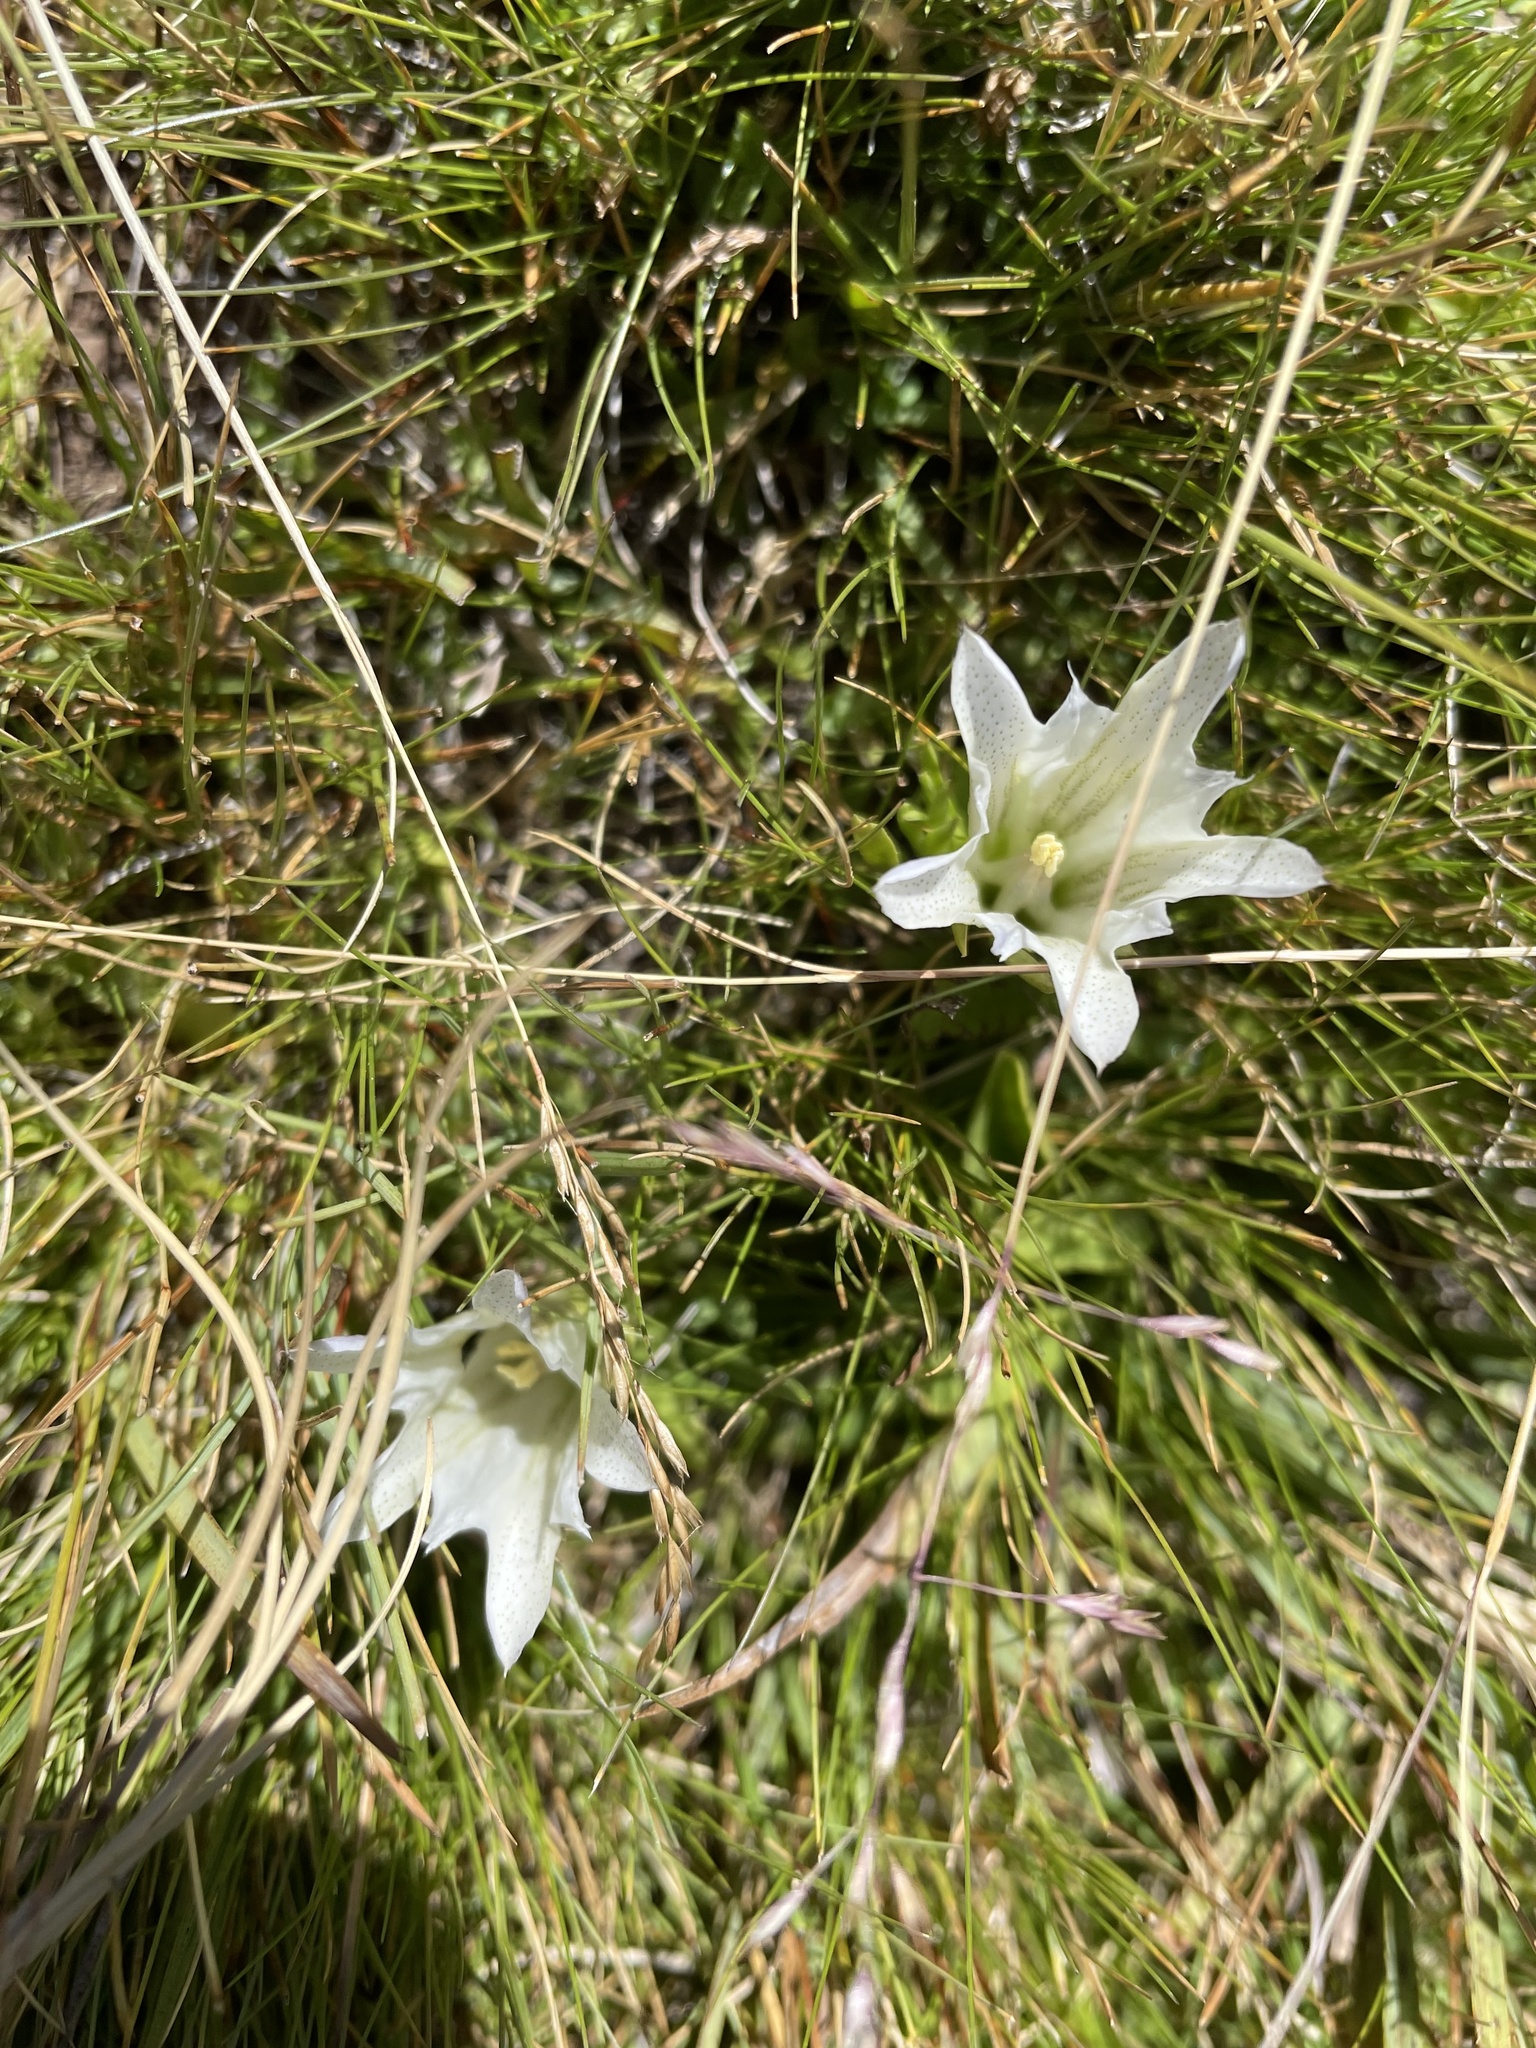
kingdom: Plantae
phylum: Tracheophyta
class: Magnoliopsida
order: Gentianales
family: Gentianaceae
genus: Gentiana
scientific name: Gentiana newberryi
